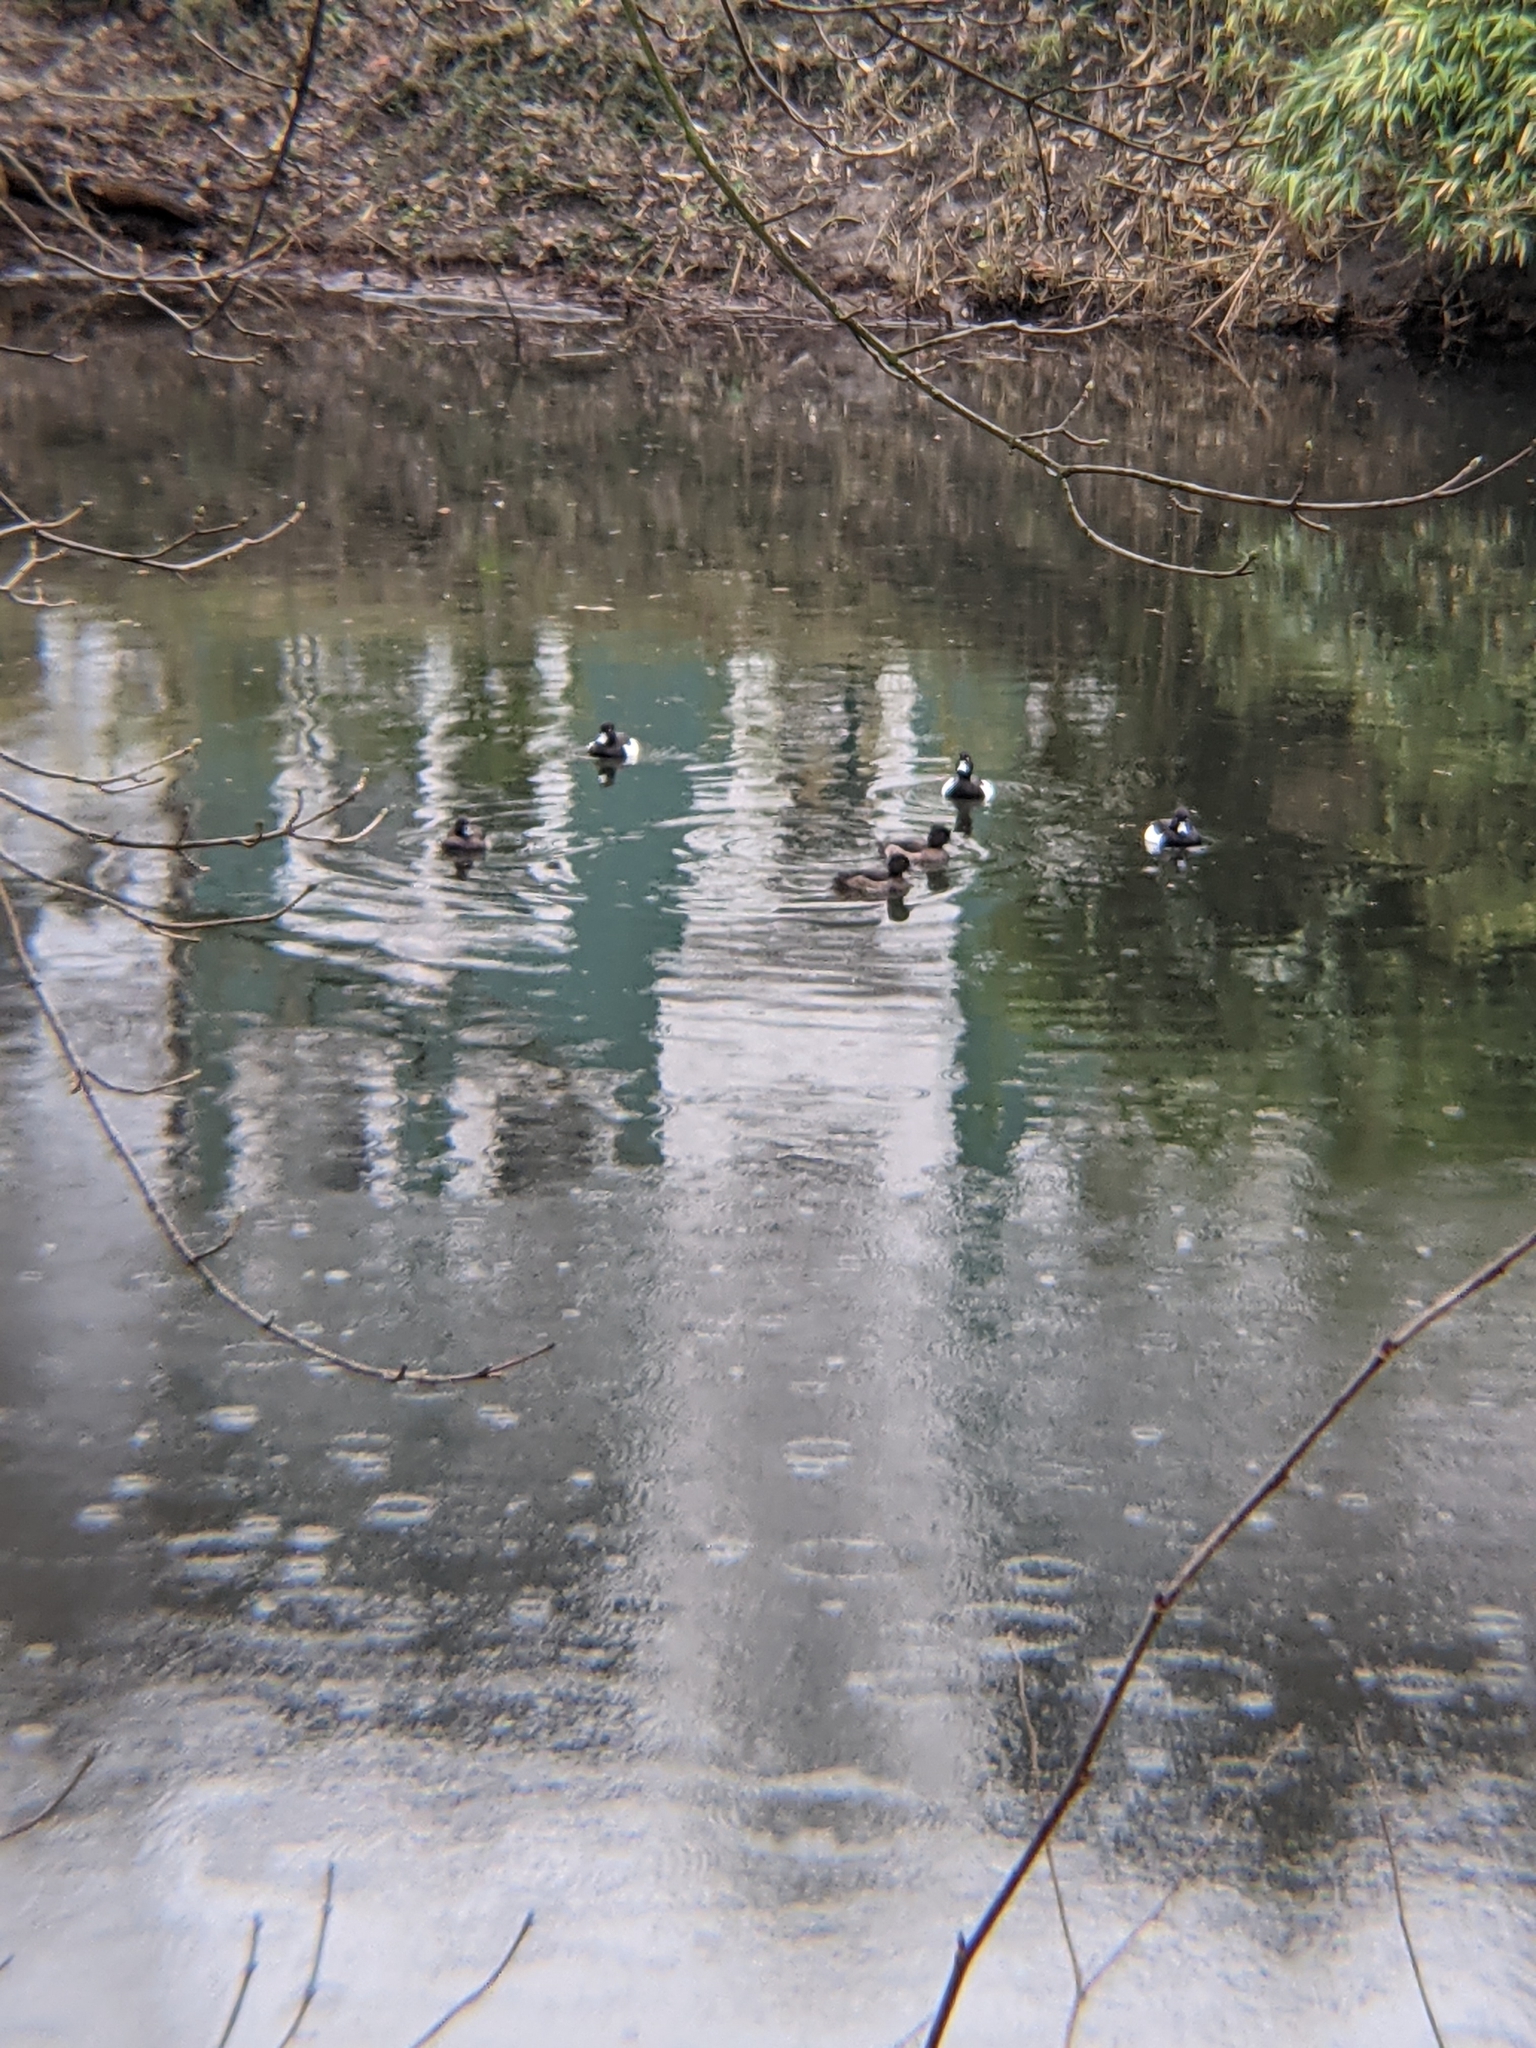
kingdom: Animalia
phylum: Chordata
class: Aves
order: Anseriformes
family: Anatidae
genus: Aythya
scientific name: Aythya fuligula
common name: Tufted duck
